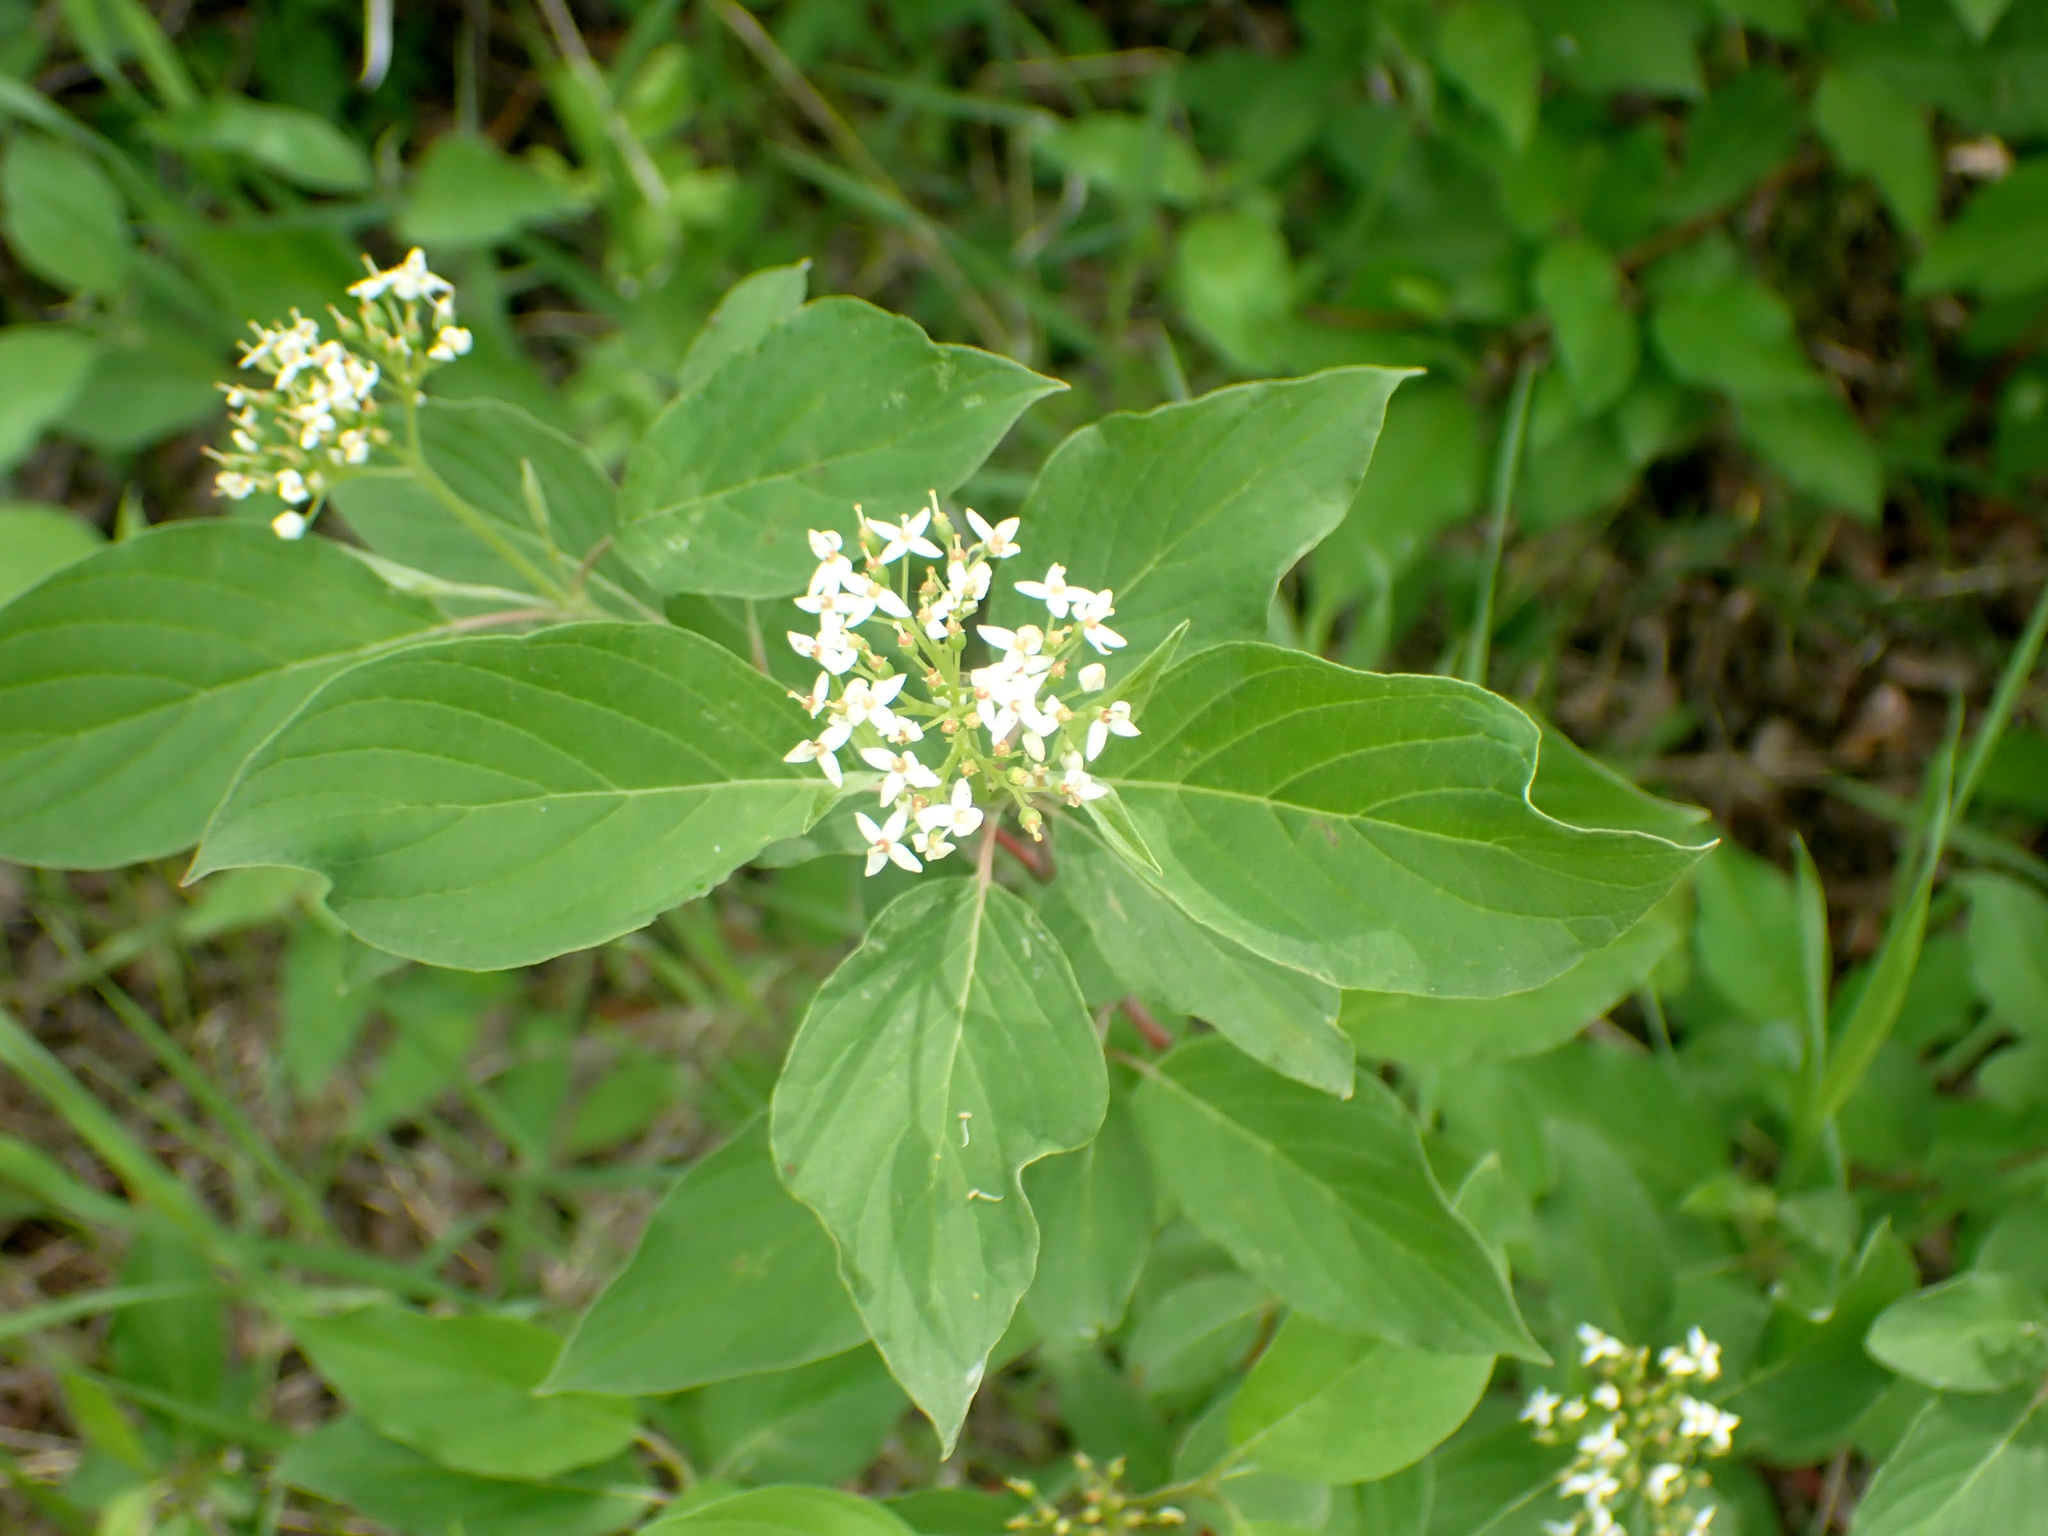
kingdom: Plantae
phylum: Tracheophyta
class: Magnoliopsida
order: Cornales
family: Cornaceae
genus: Cornus
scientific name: Cornus sericea
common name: Red-osier dogwood
